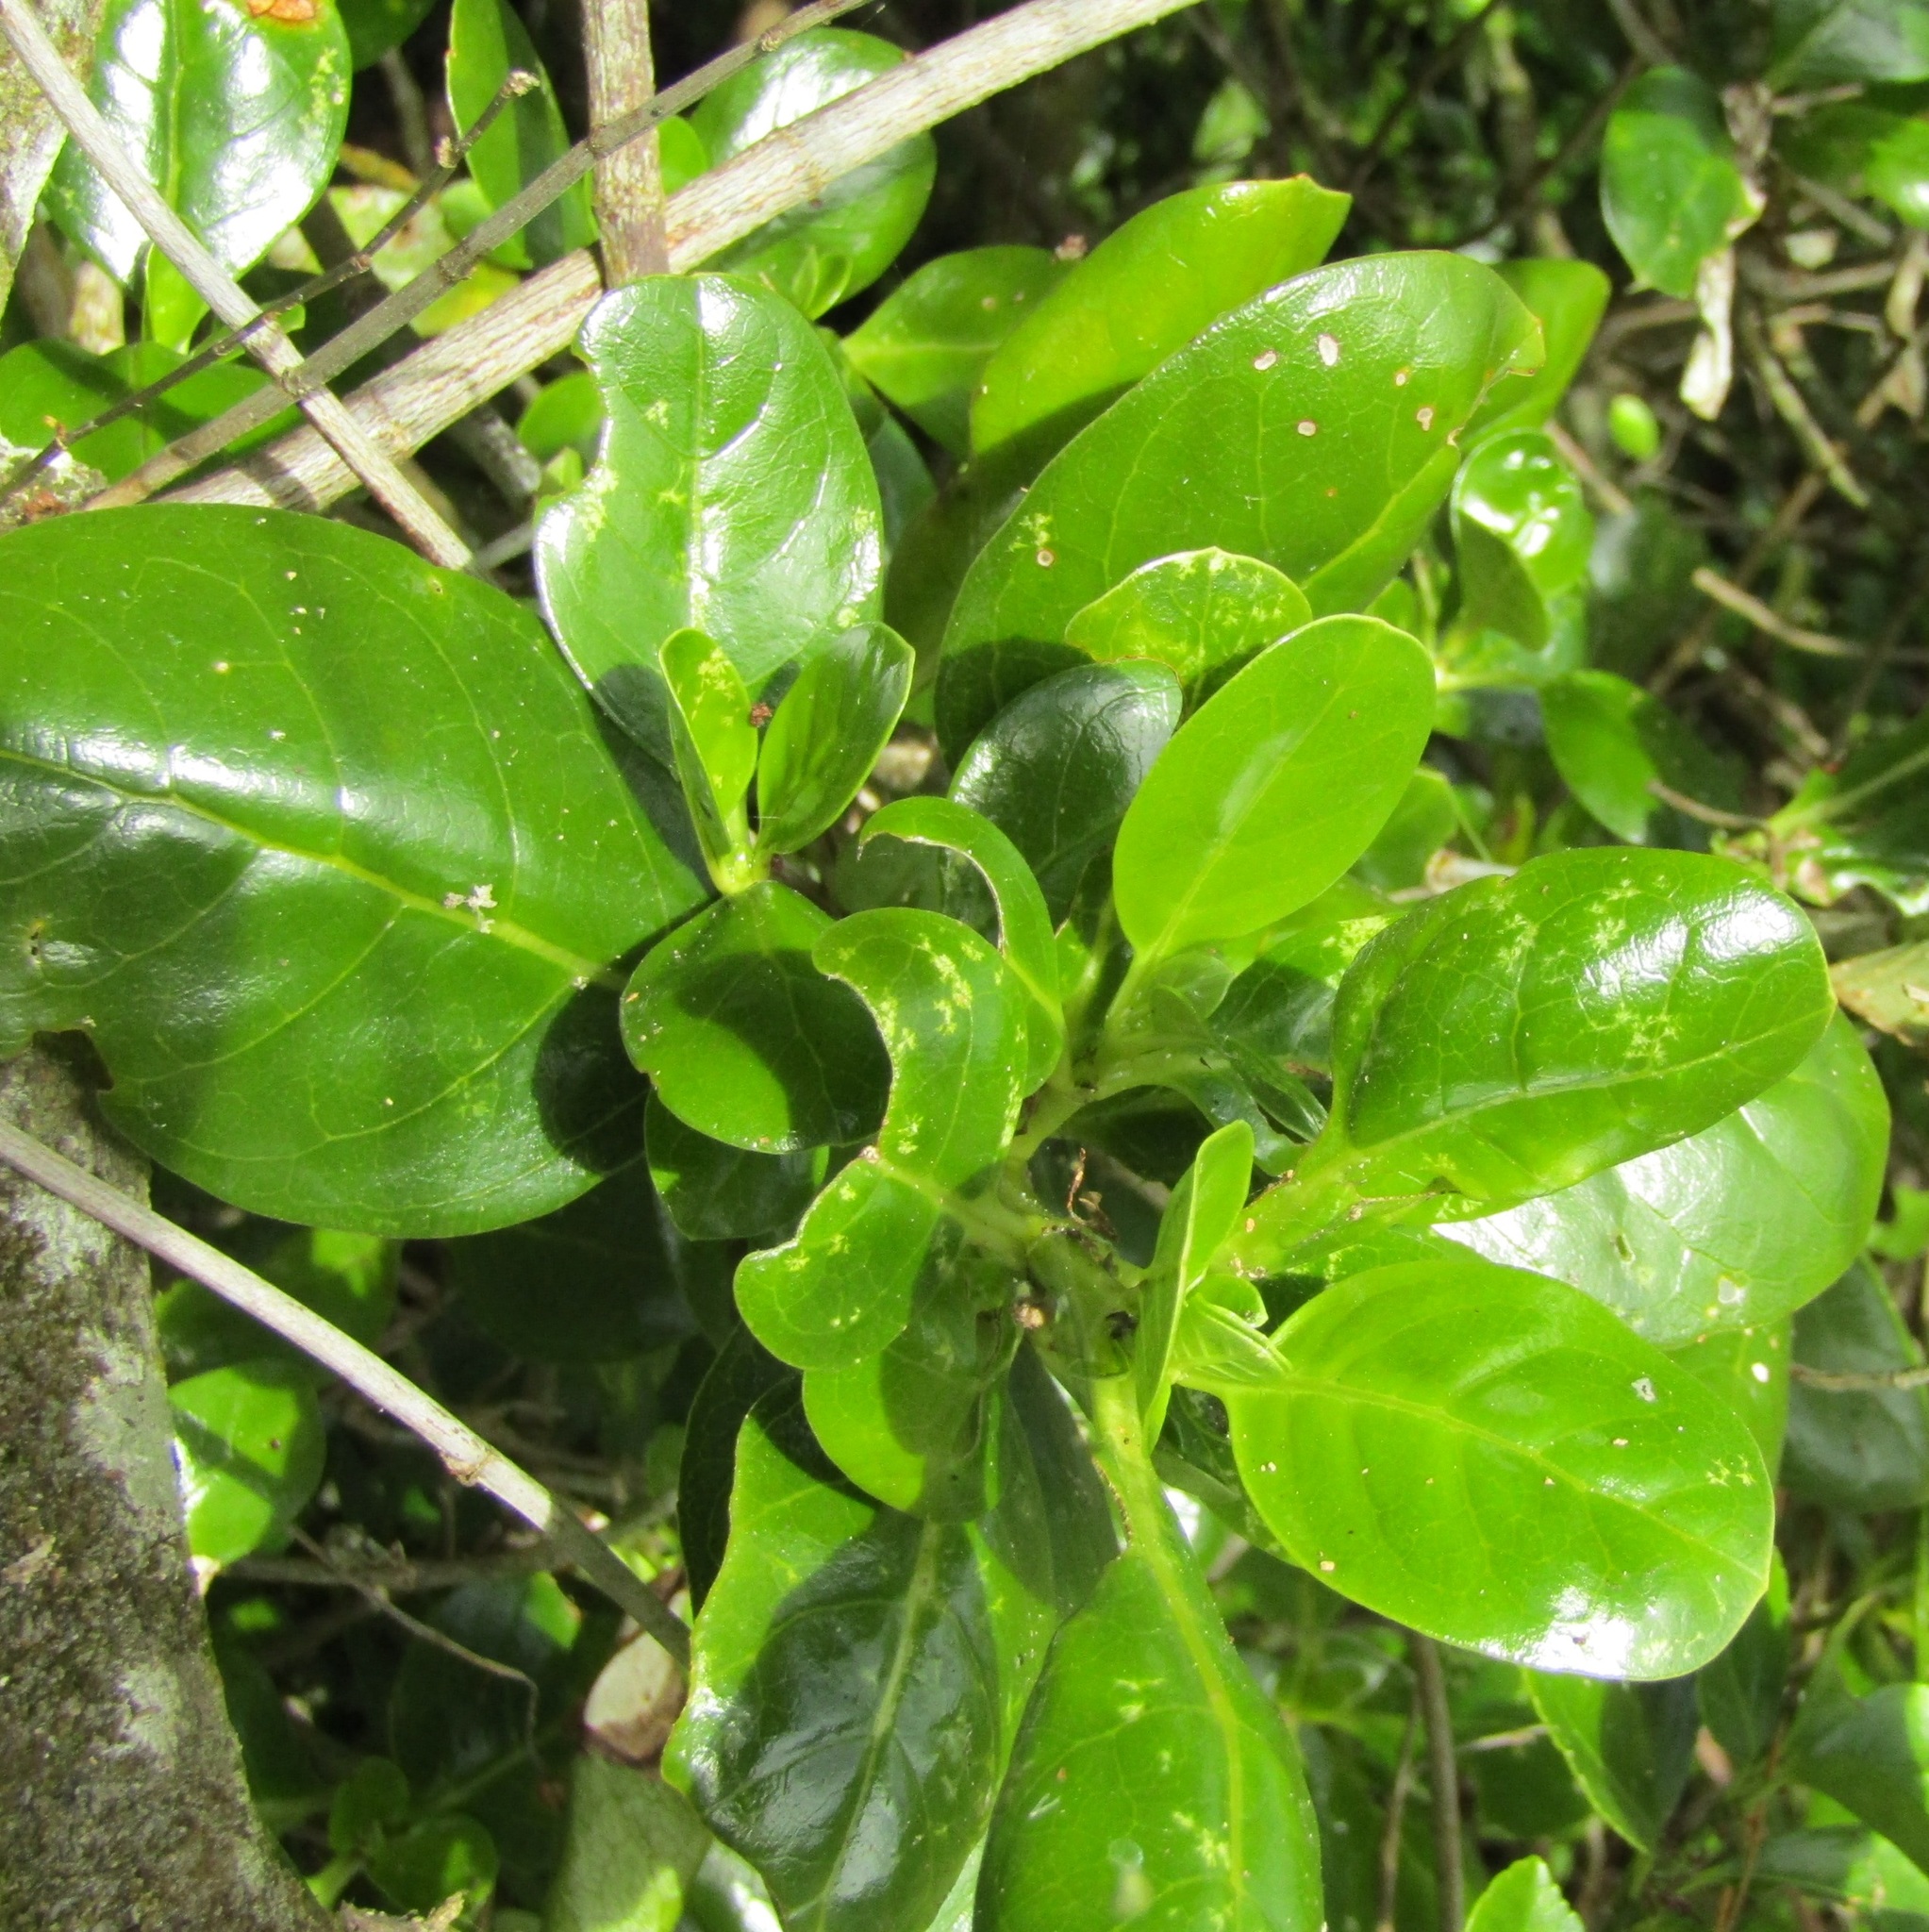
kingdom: Plantae
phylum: Tracheophyta
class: Magnoliopsida
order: Gentianales
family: Rubiaceae
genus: Coprosma
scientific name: Coprosma repens
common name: Tree bedstraw
